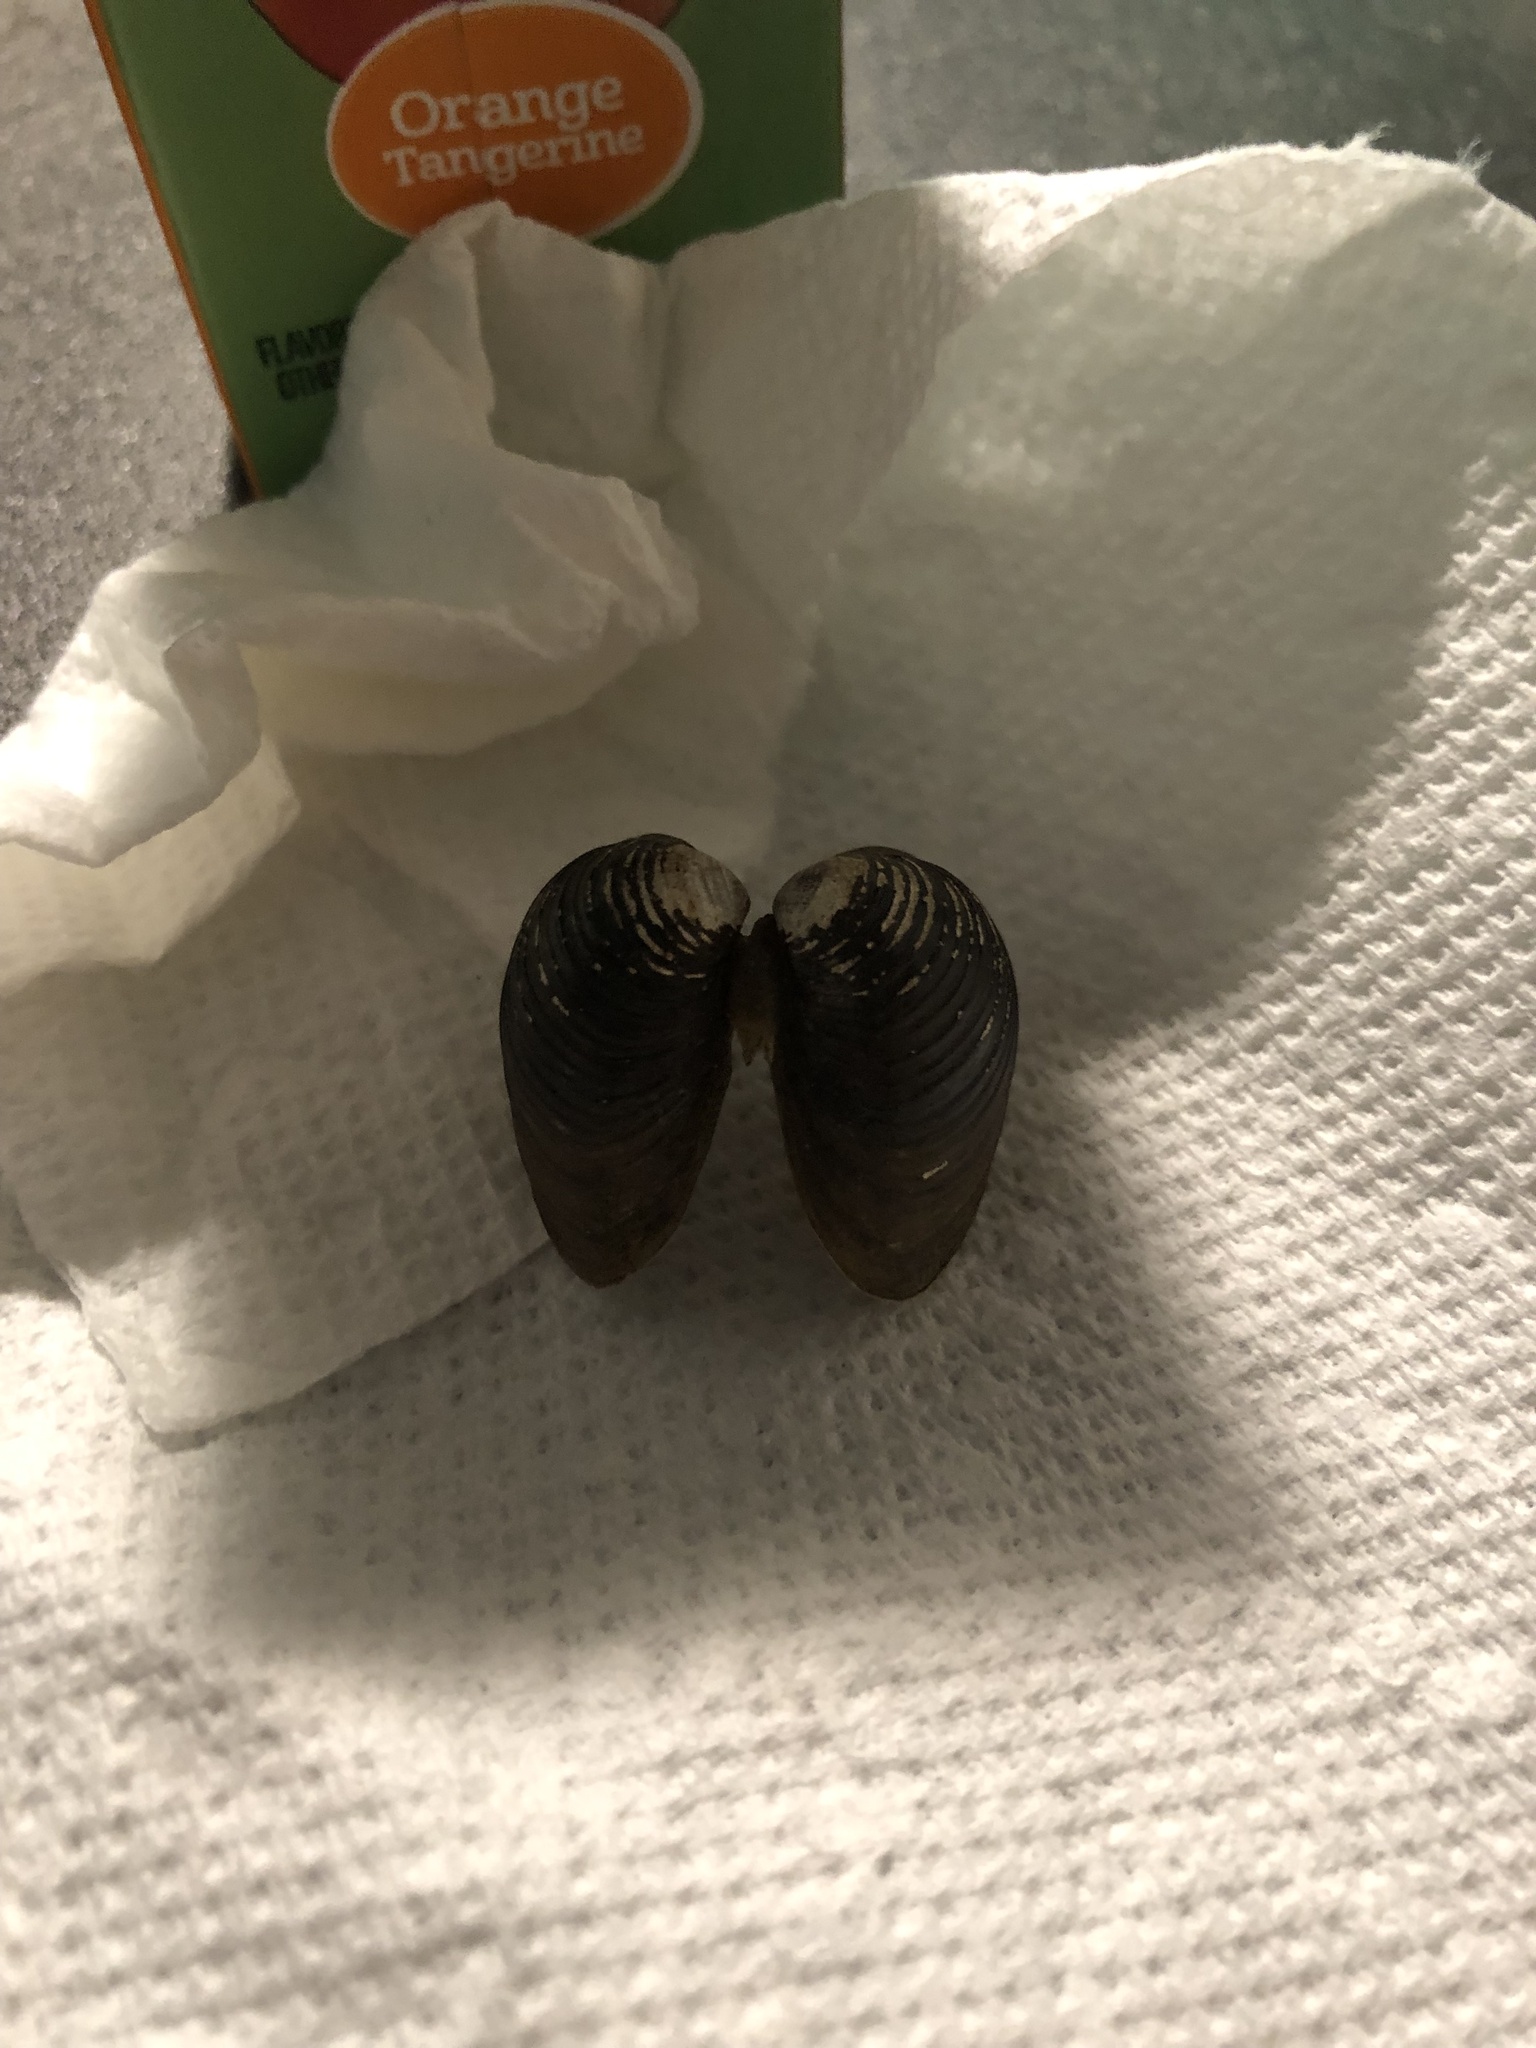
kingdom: Animalia
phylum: Mollusca
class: Bivalvia
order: Venerida
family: Cyrenidae
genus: Corbicula
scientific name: Corbicula fluminea
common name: Asian clam
